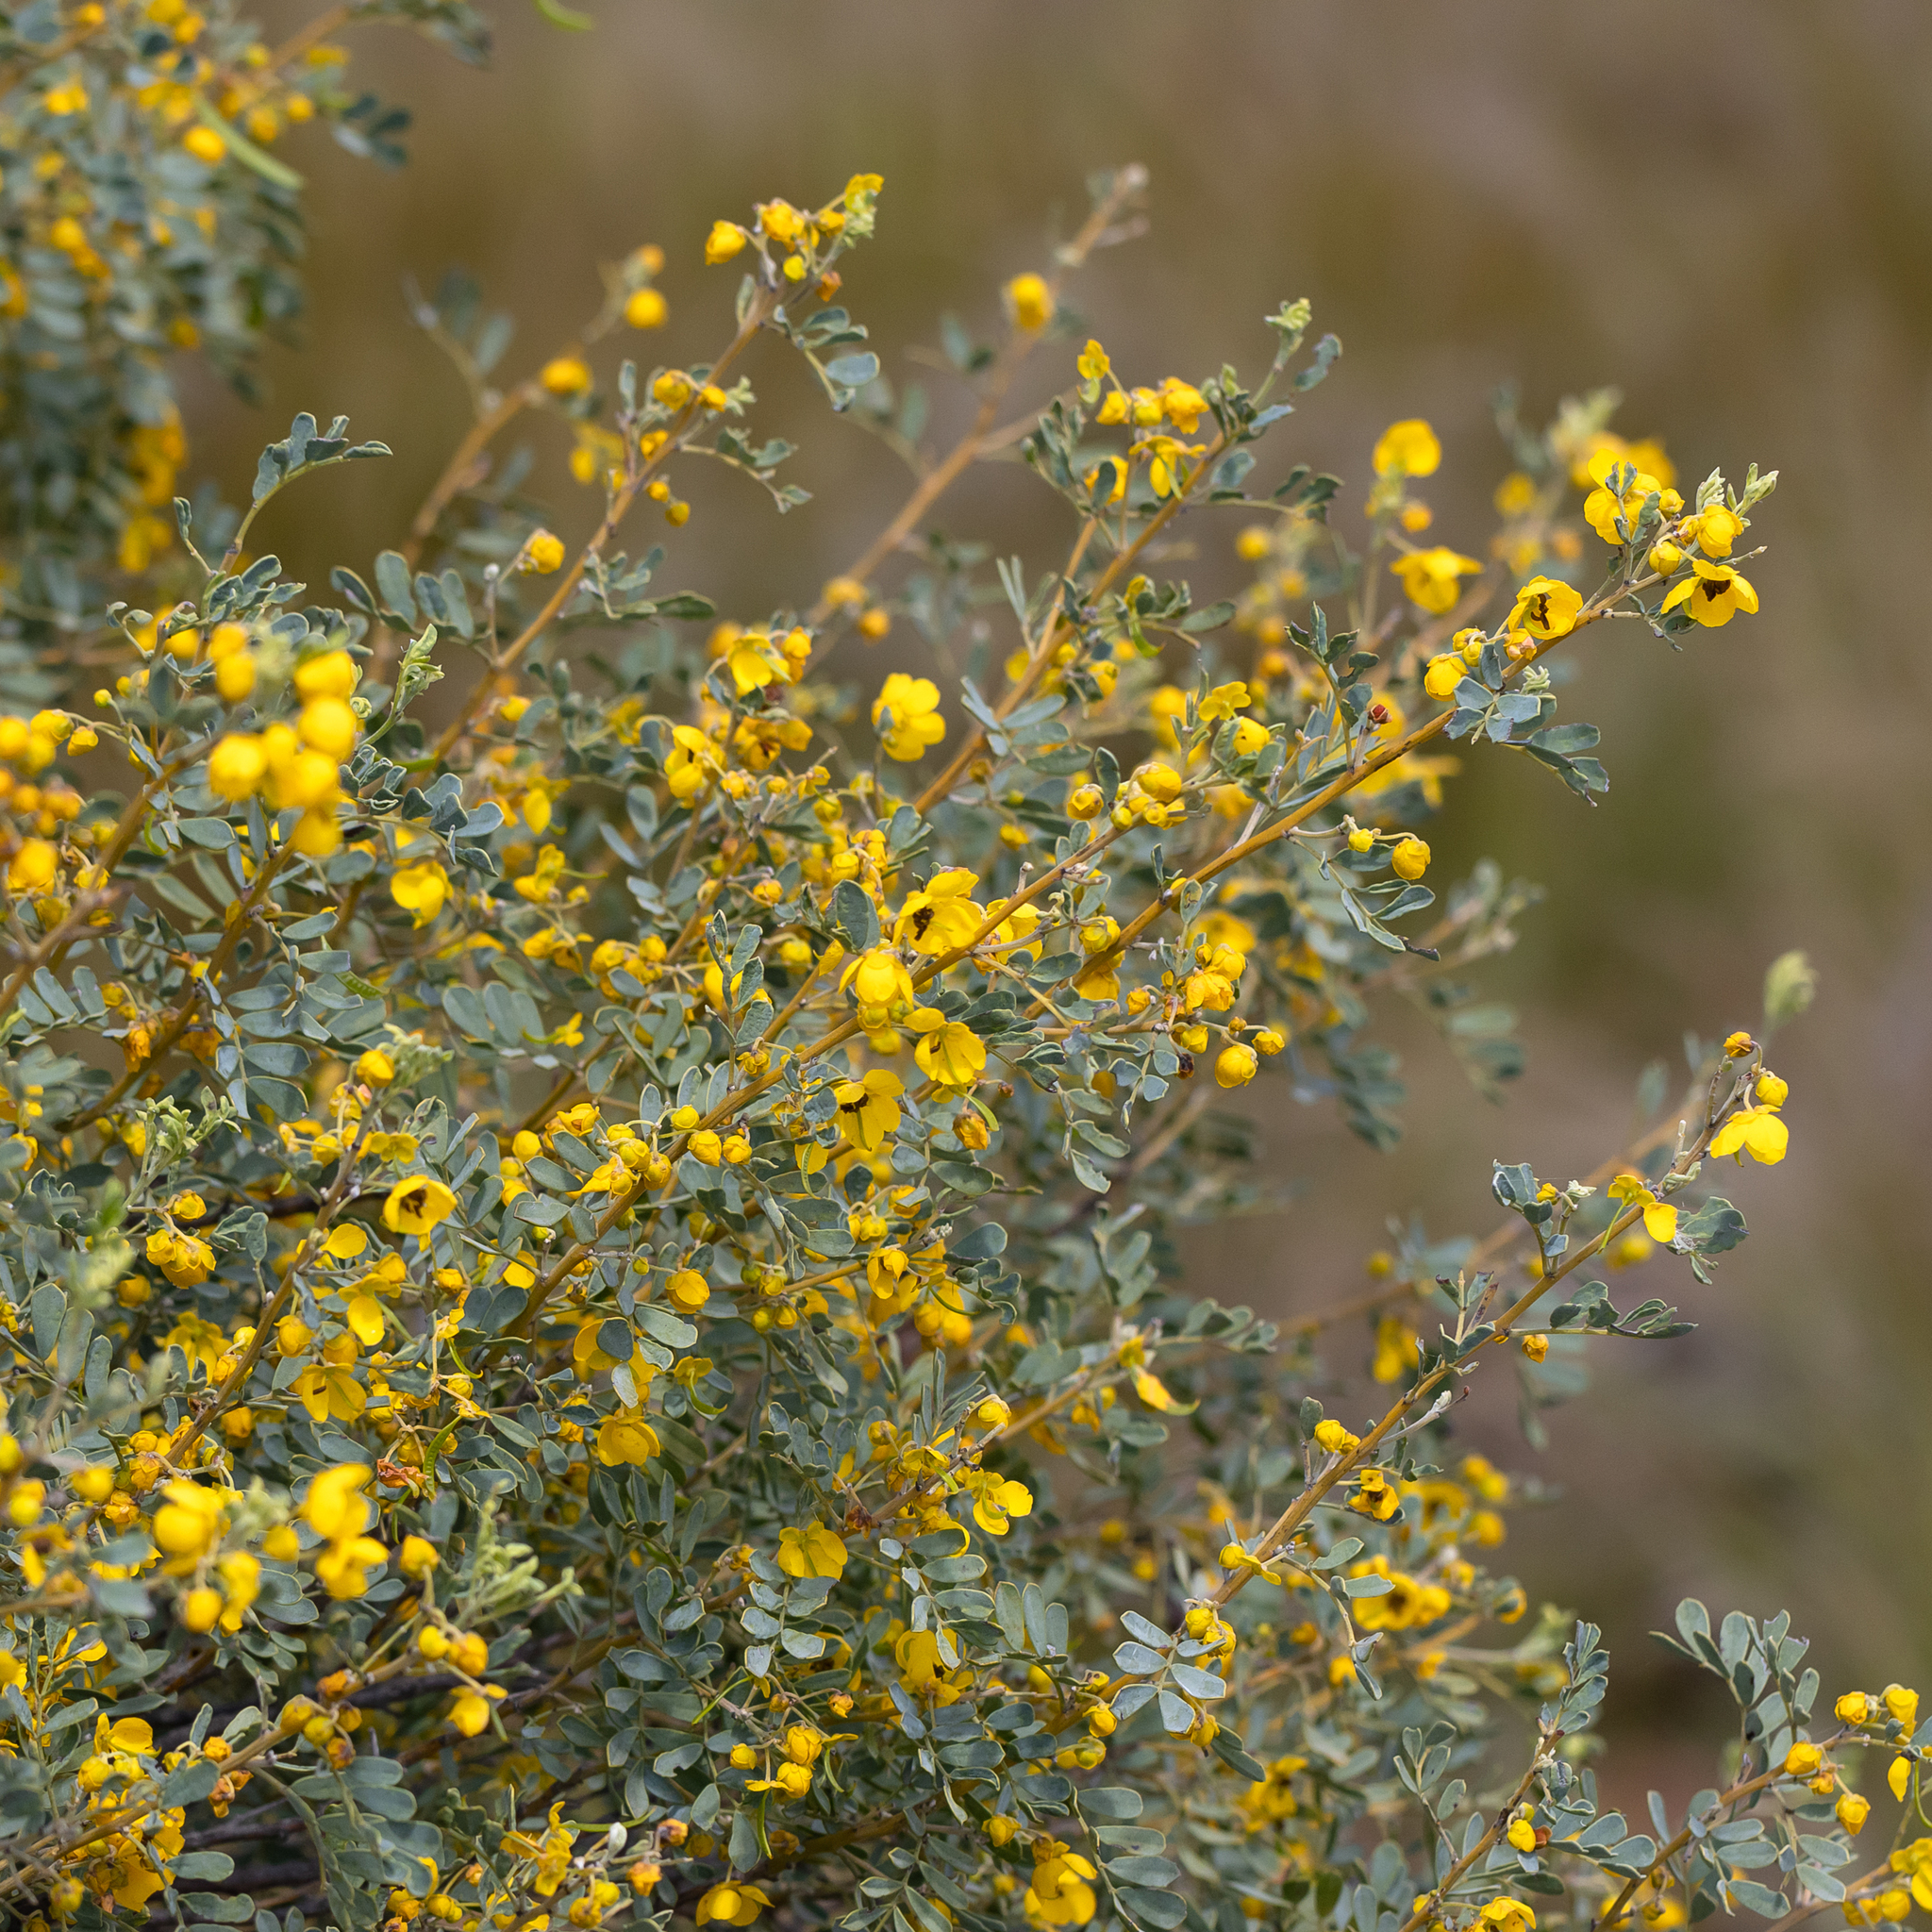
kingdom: Plantae
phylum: Tracheophyta
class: Magnoliopsida
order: Fabales
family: Fabaceae
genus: Senna
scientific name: Senna artemisioides
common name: Burnt-leaved acacia
